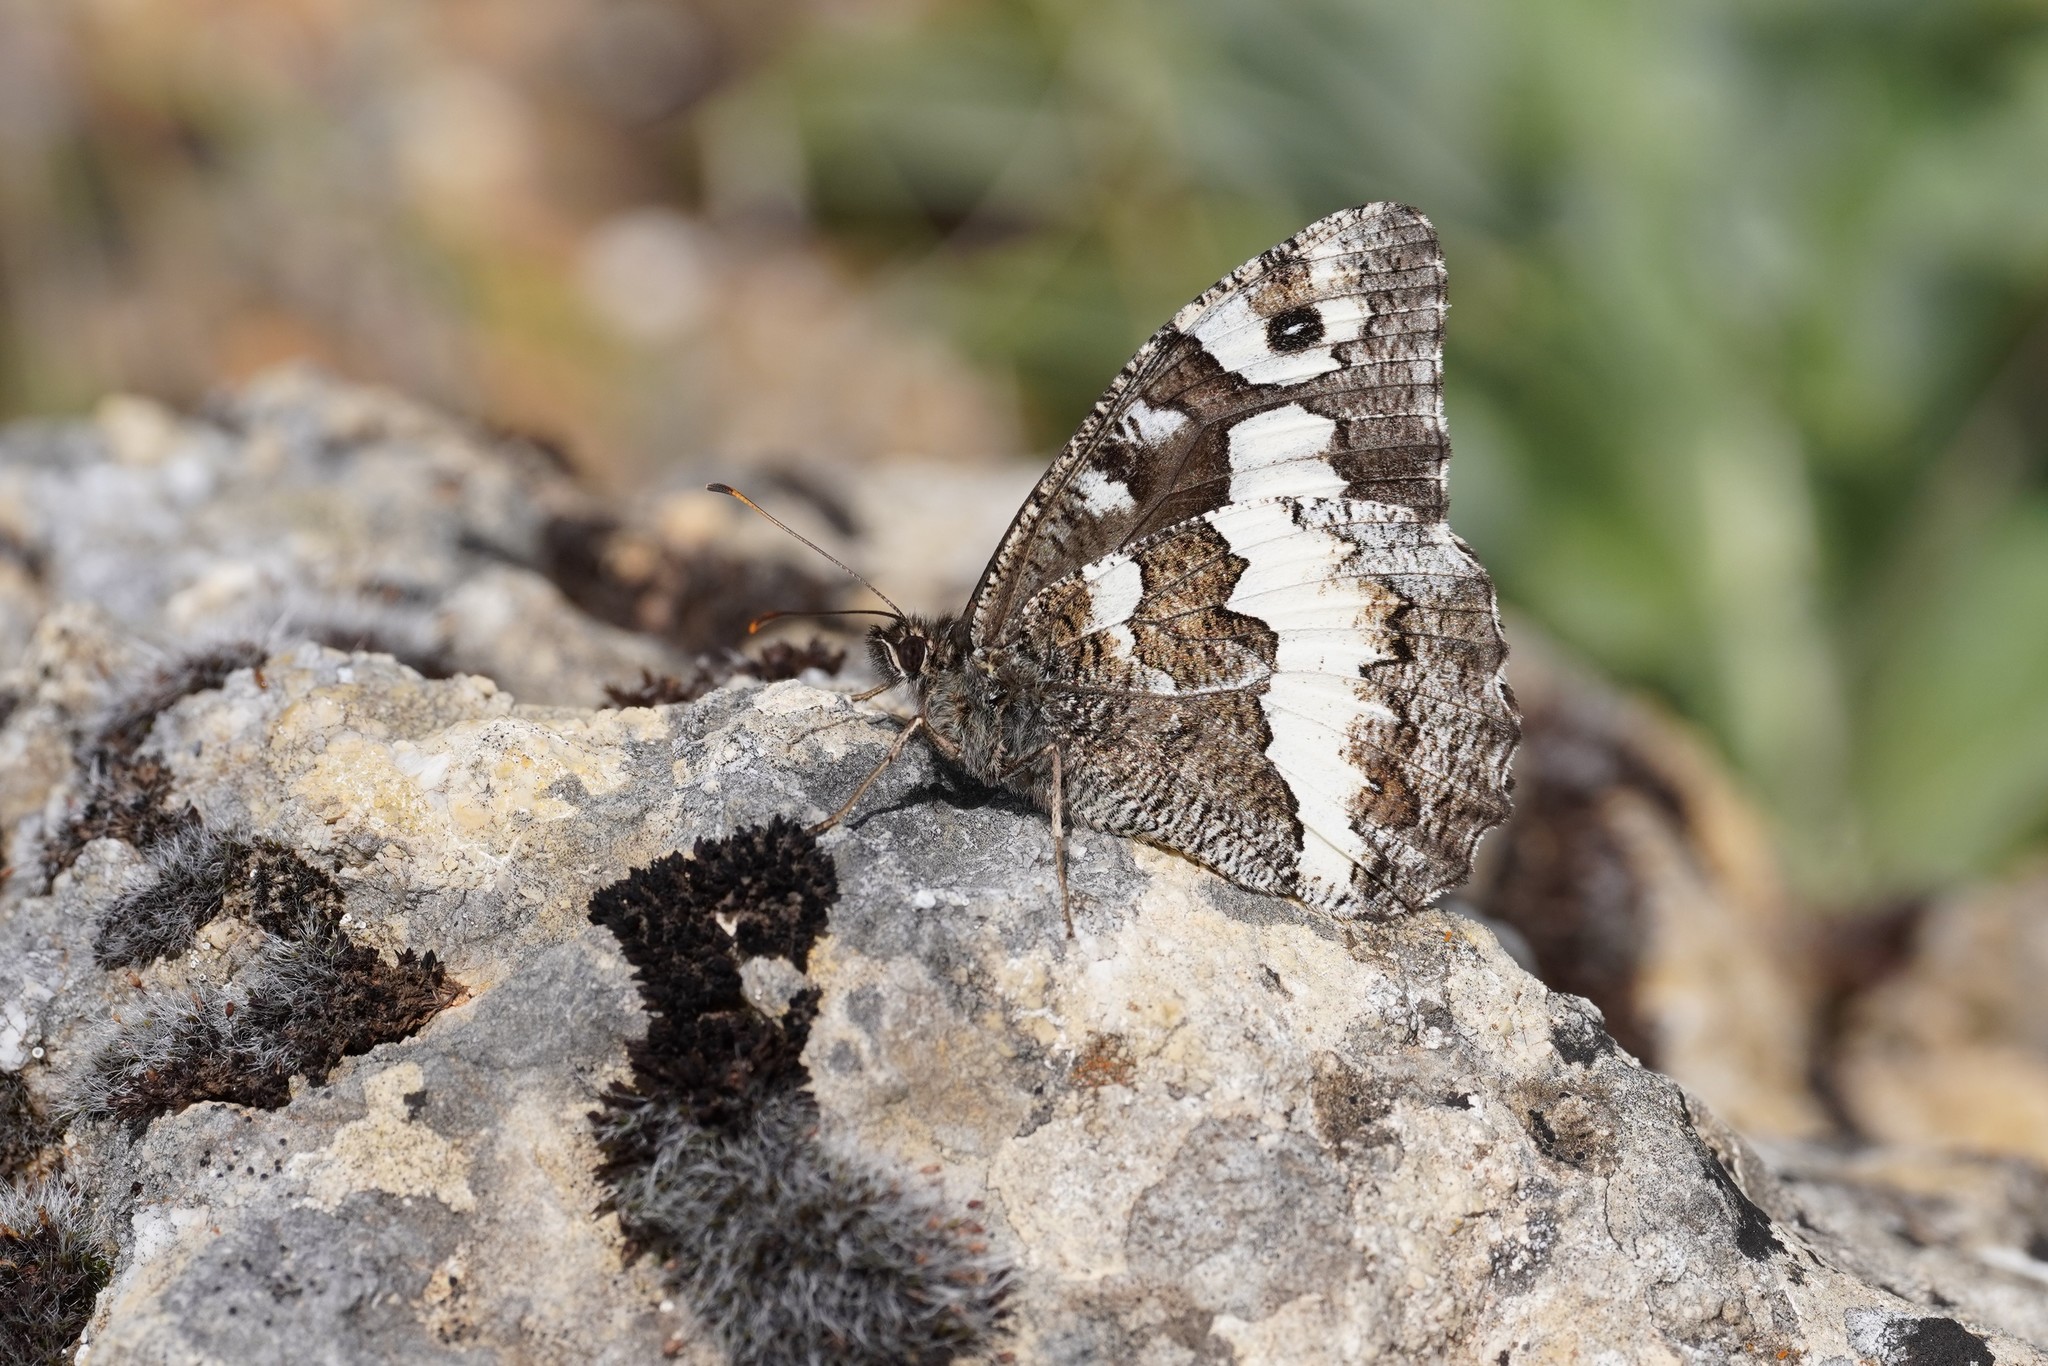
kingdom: Animalia
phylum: Arthropoda
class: Insecta
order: Lepidoptera
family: Lycaenidae
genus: Loweia
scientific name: Loweia tityrus
